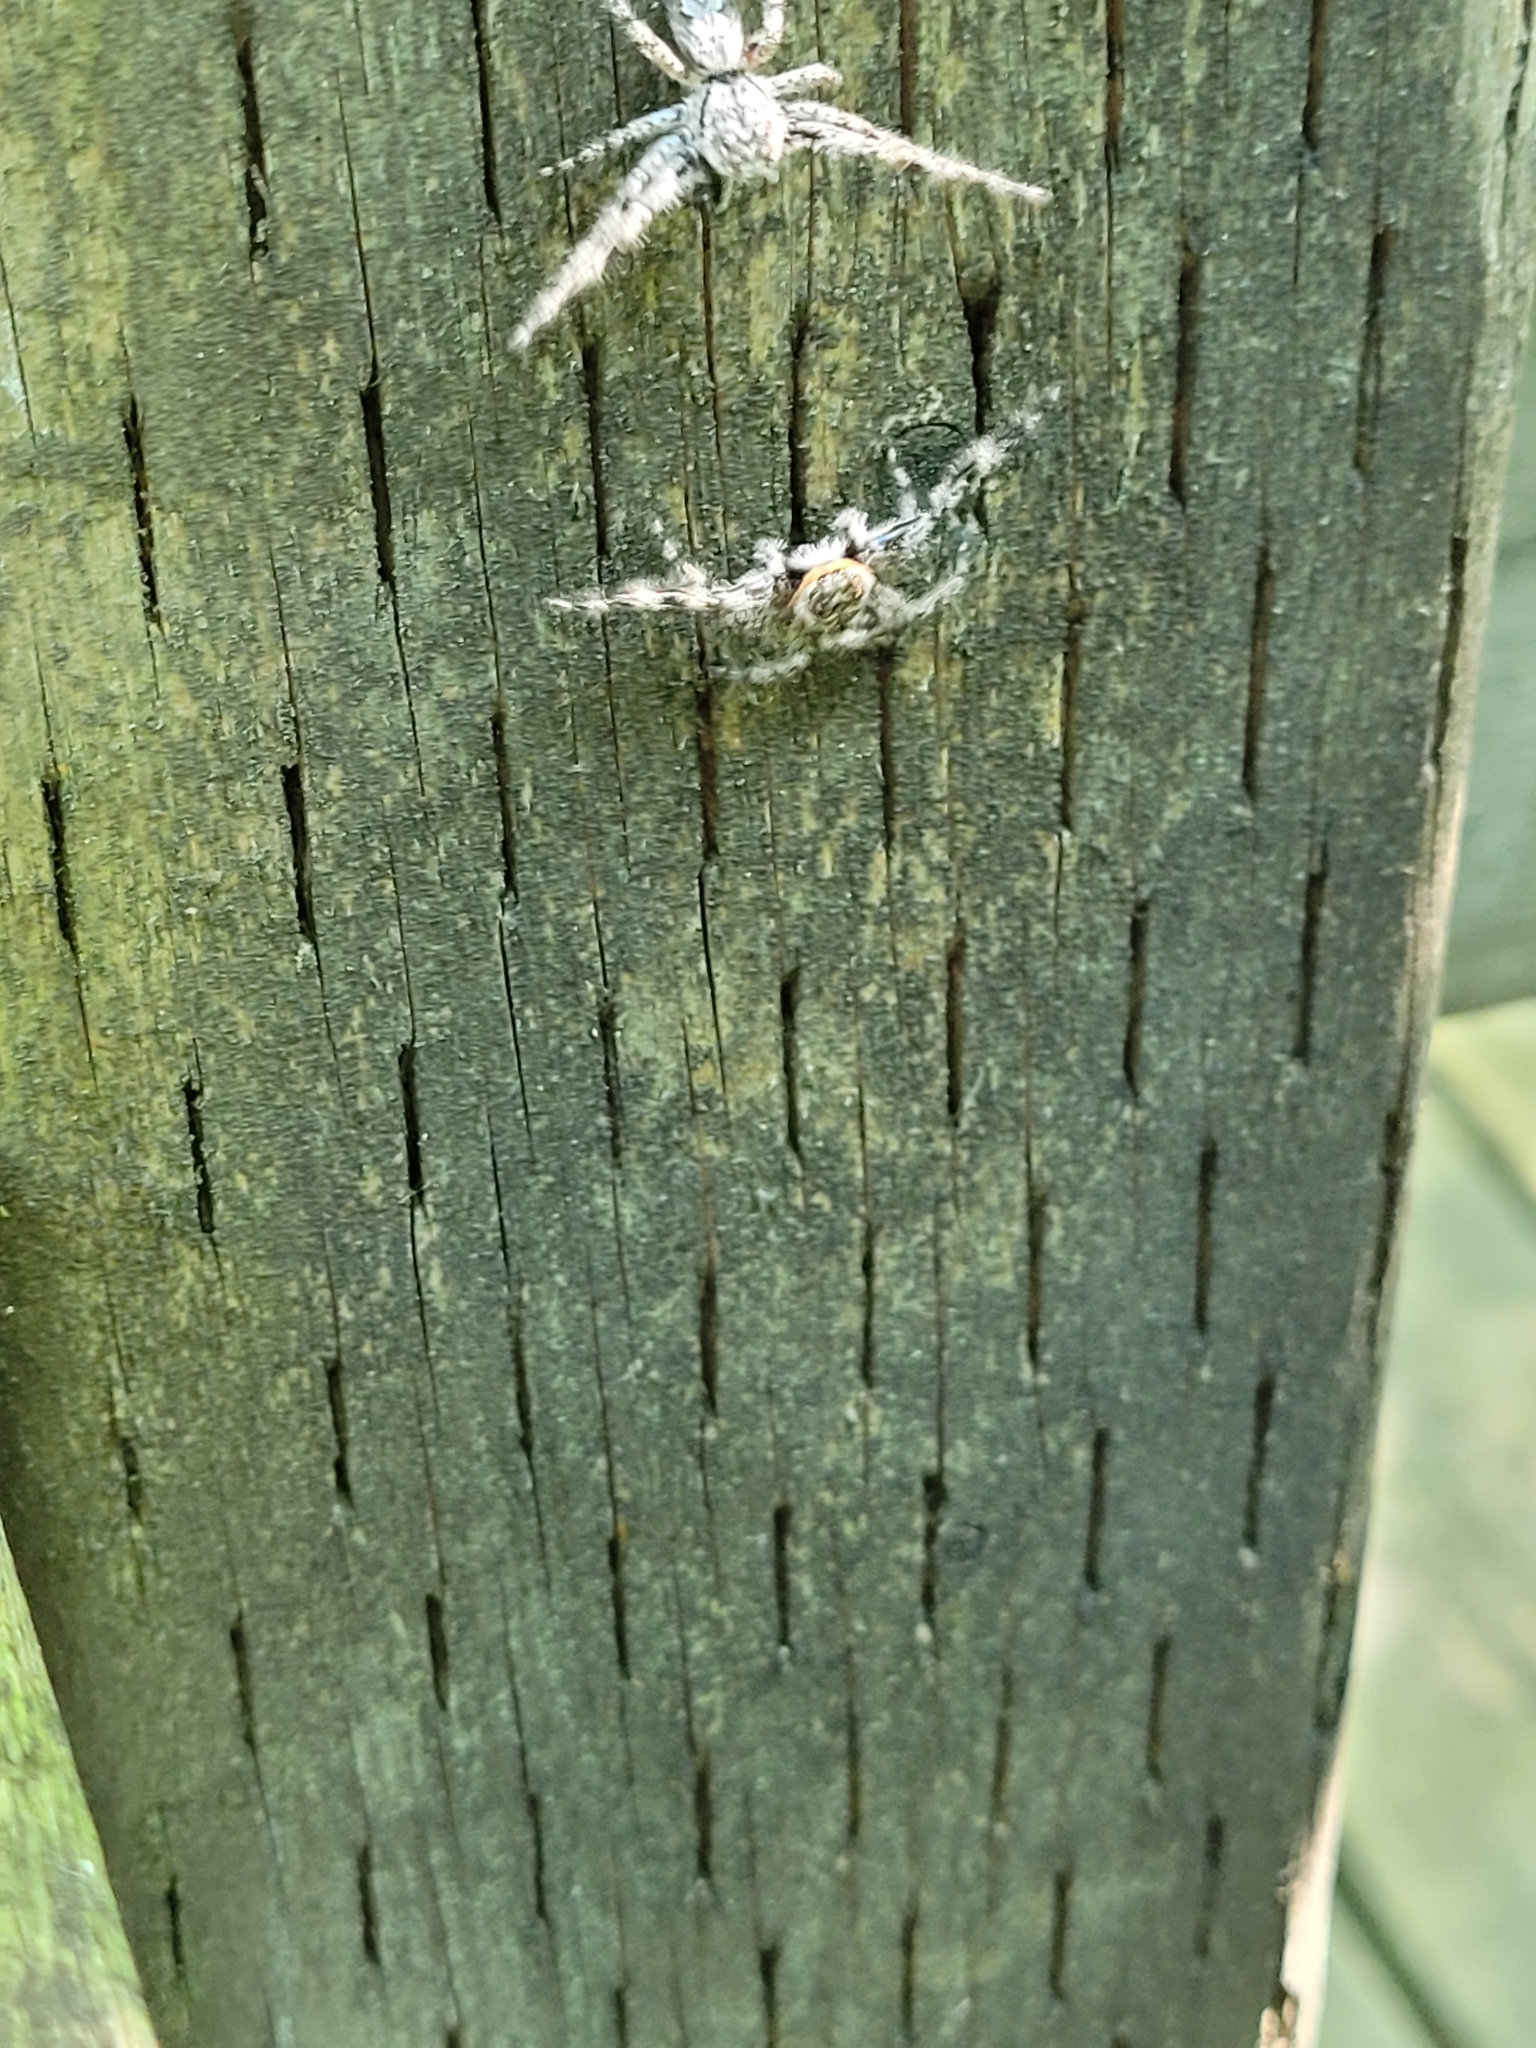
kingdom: Animalia
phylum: Arthropoda
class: Arachnida
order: Araneae
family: Salticidae
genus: Platycryptus
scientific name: Platycryptus undatus
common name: Tan jumping spider
